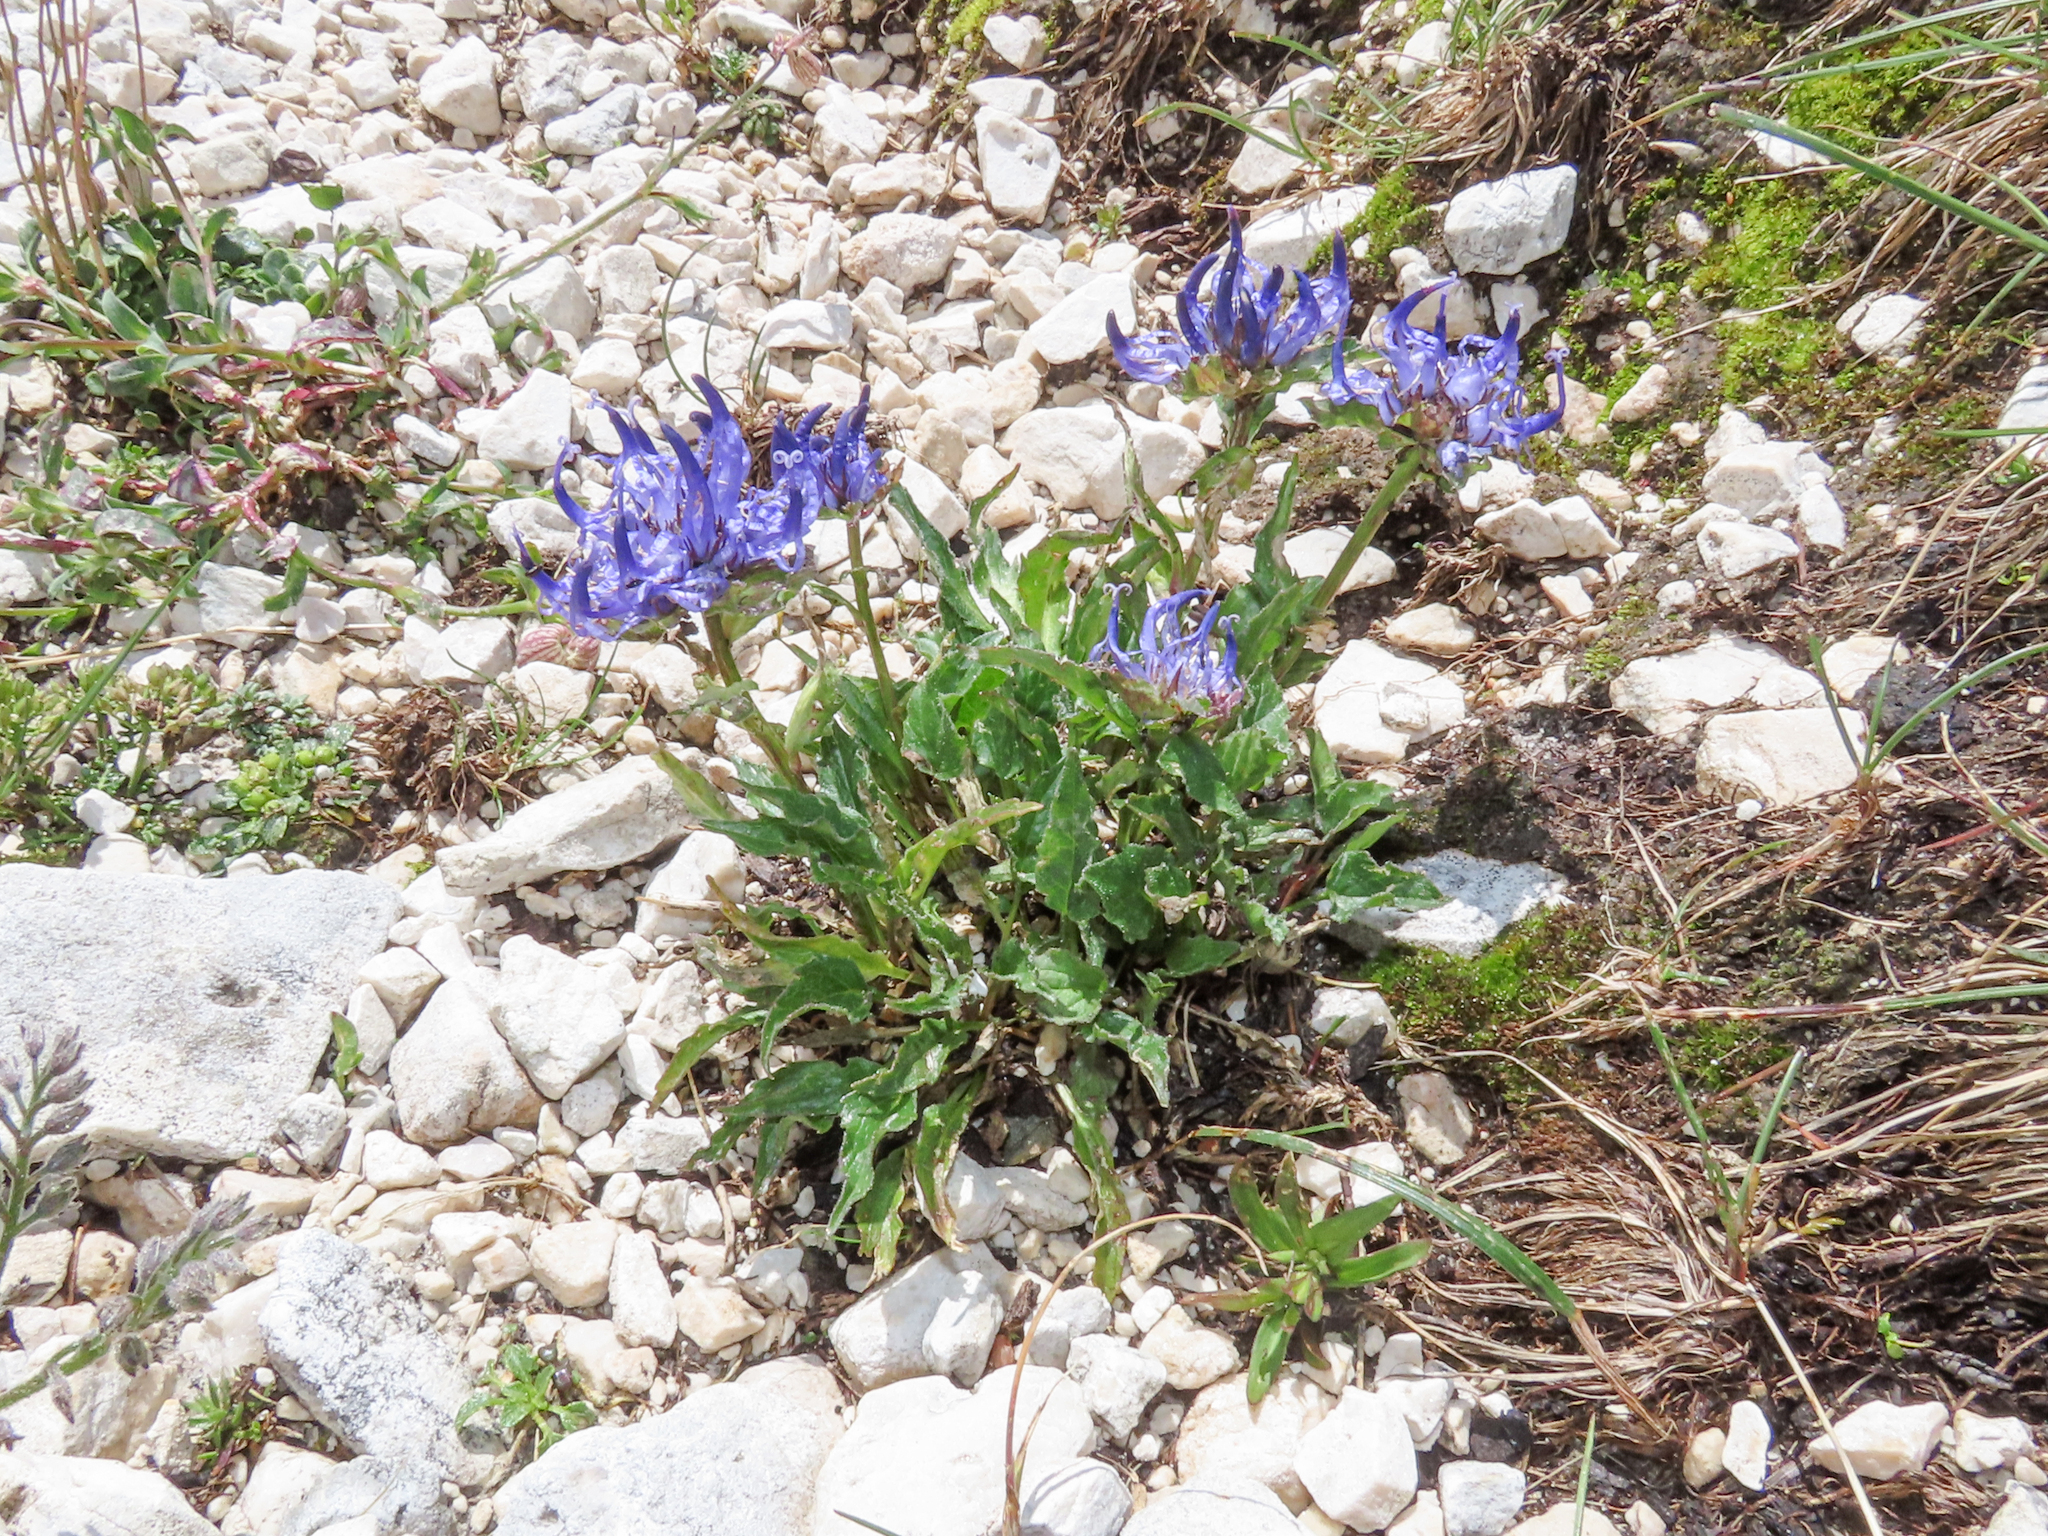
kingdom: Plantae
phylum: Tracheophyta
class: Magnoliopsida
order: Asterales
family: Campanulaceae
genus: Phyteuma
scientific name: Phyteuma sieberi
